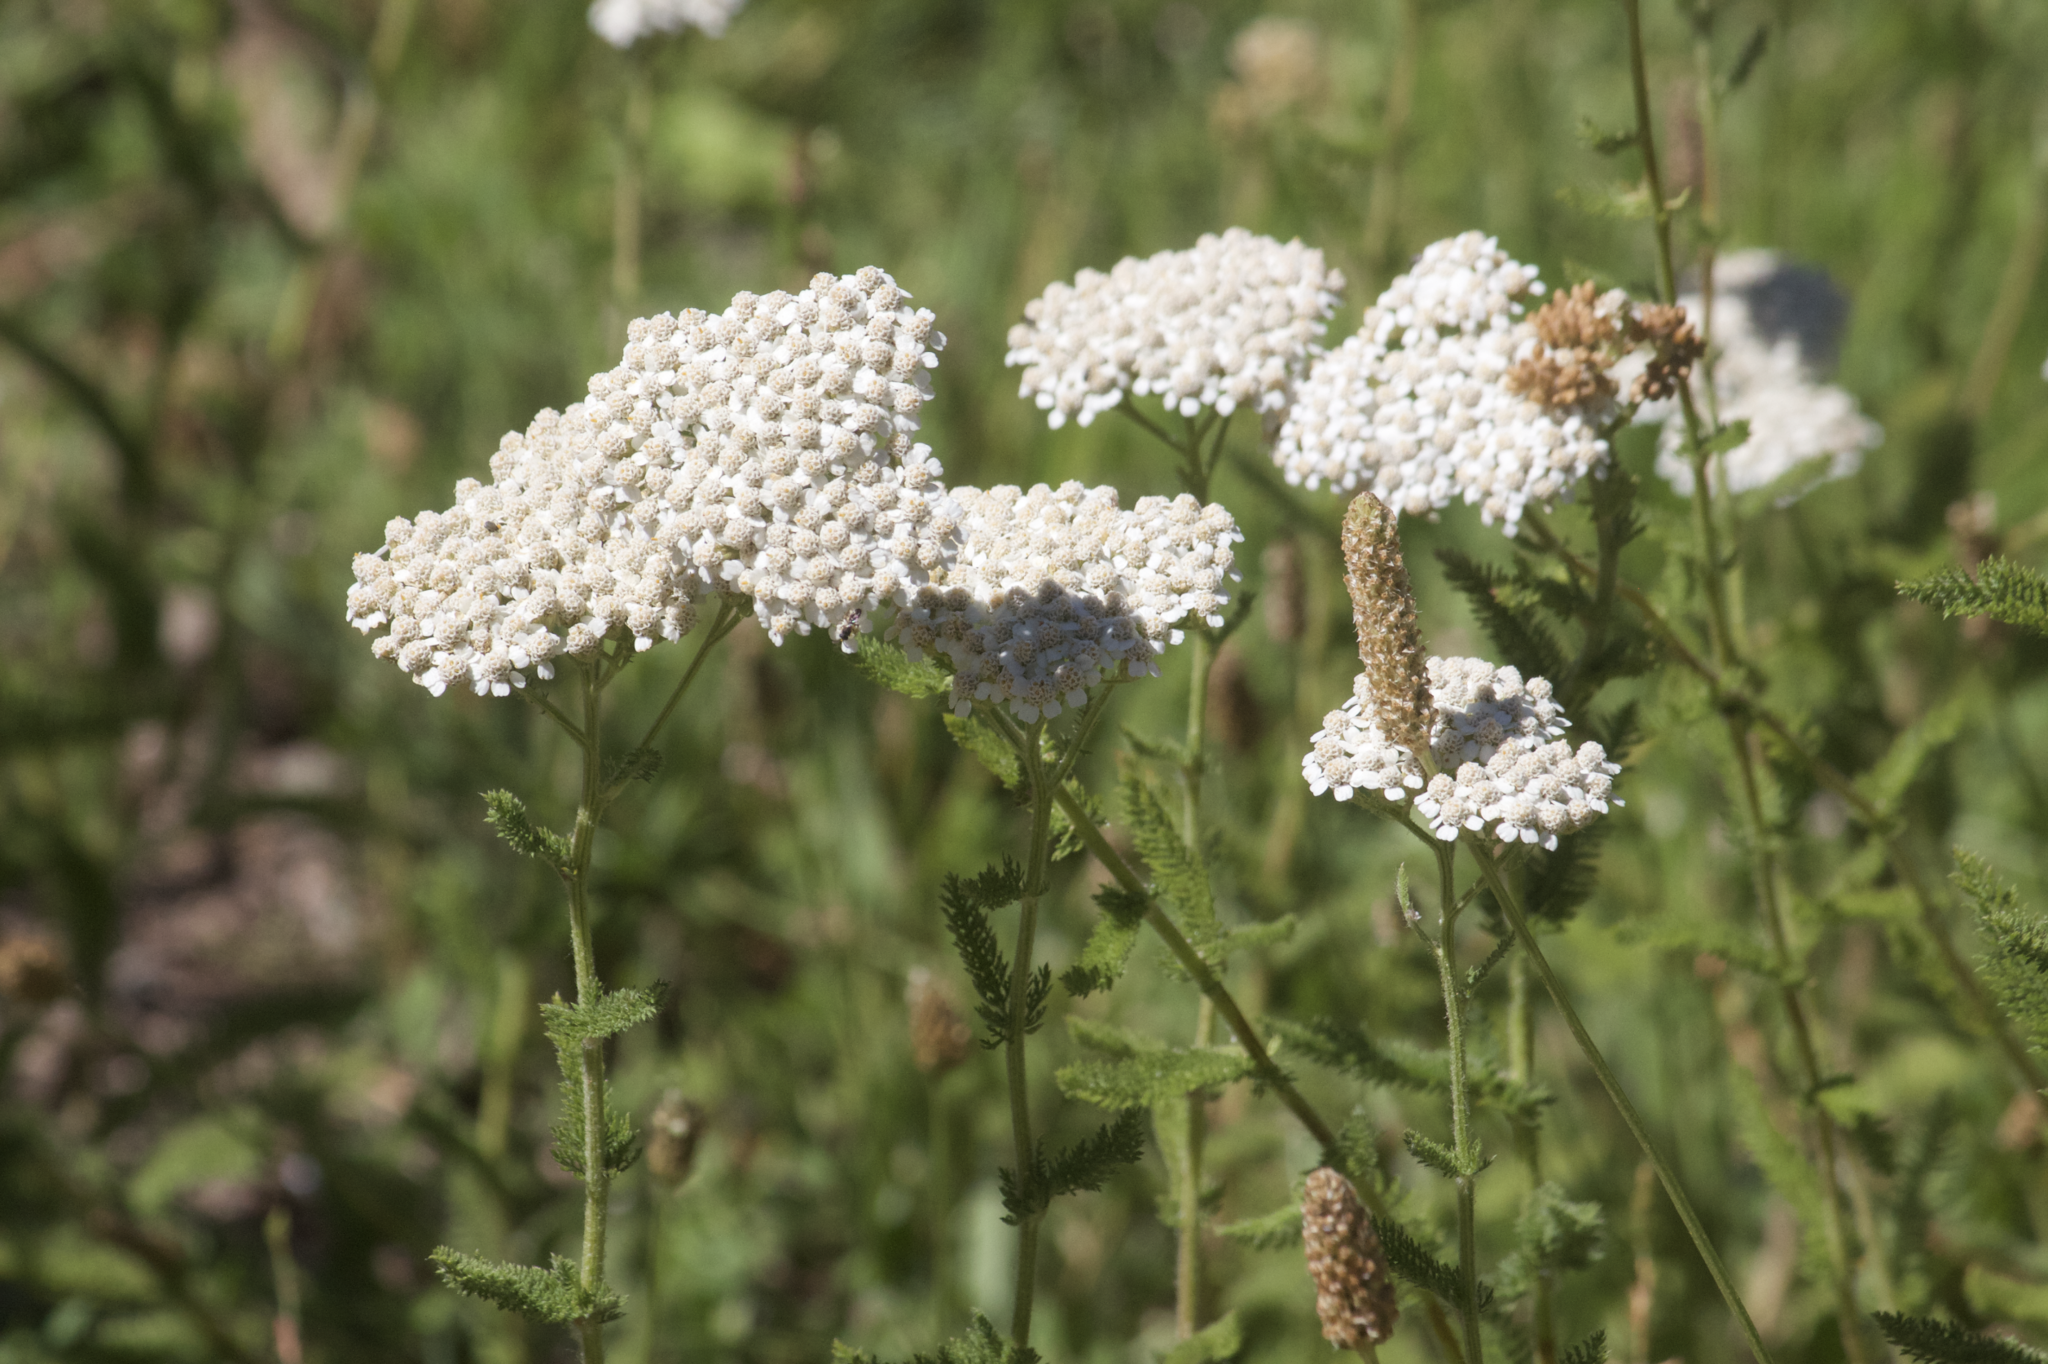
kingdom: Plantae
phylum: Tracheophyta
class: Magnoliopsida
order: Asterales
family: Asteraceae
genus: Achillea
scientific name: Achillea millefolium
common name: Yarrow
